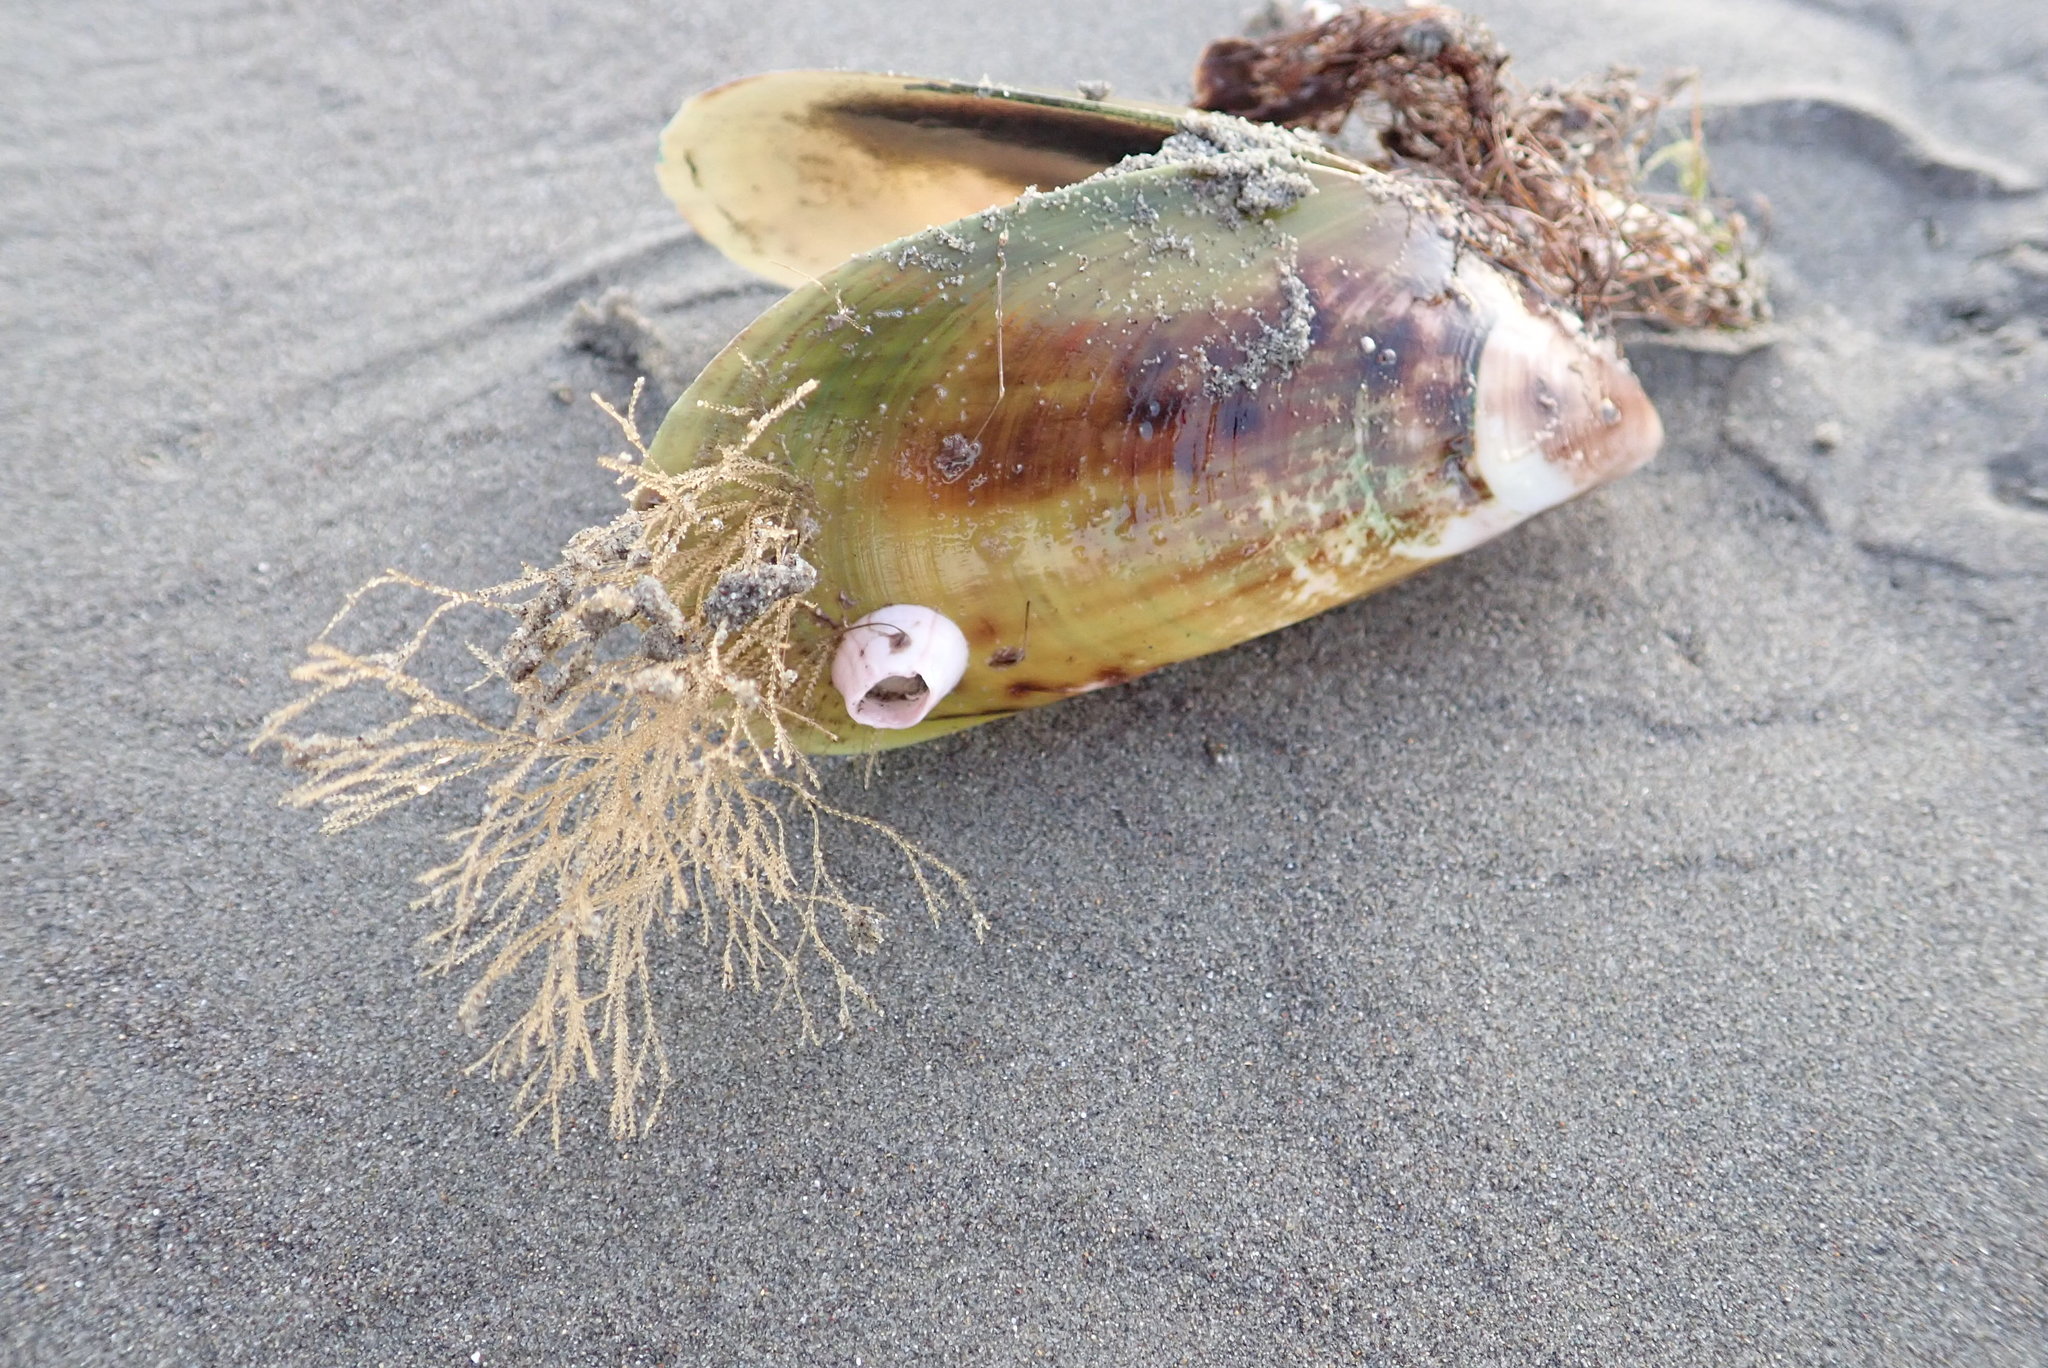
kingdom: Animalia
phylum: Mollusca
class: Bivalvia
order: Mytilida
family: Mytilidae
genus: Perna
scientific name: Perna canaliculus
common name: New zealand greenshelltm
